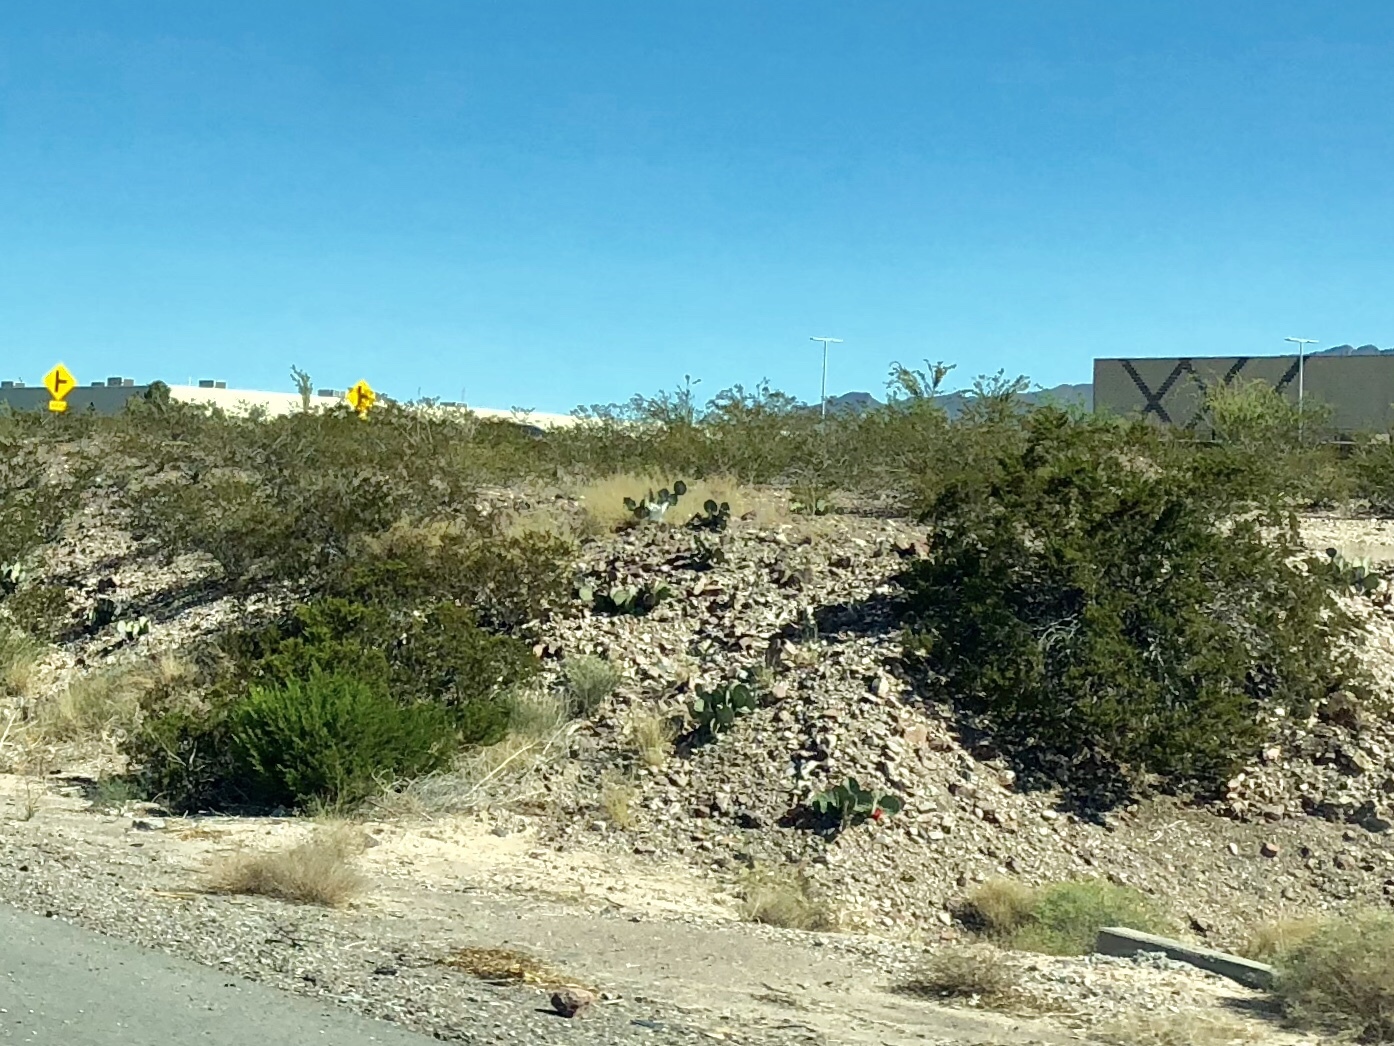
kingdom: Plantae
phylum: Tracheophyta
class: Magnoliopsida
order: Zygophyllales
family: Zygophyllaceae
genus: Larrea
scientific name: Larrea tridentata
